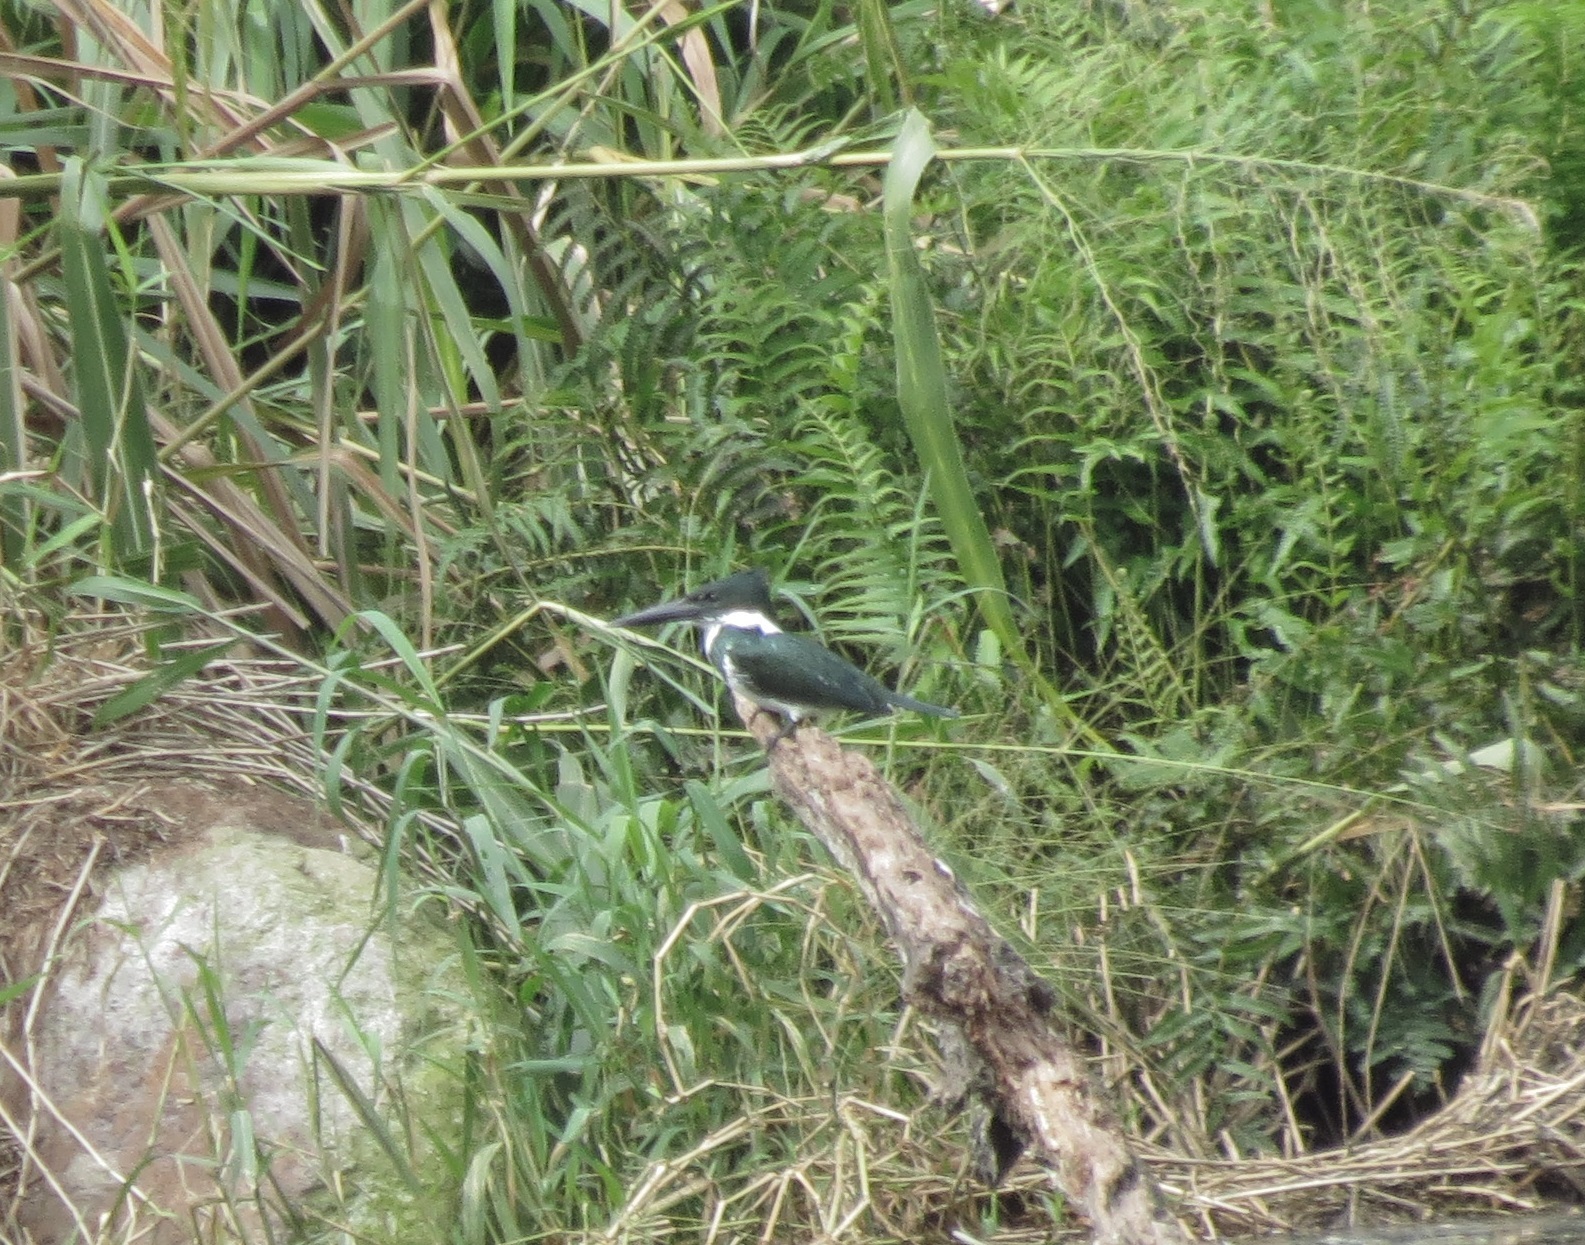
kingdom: Animalia
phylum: Chordata
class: Aves
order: Coraciiformes
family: Alcedinidae
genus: Chloroceryle
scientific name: Chloroceryle amazona
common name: Amazon kingfisher
